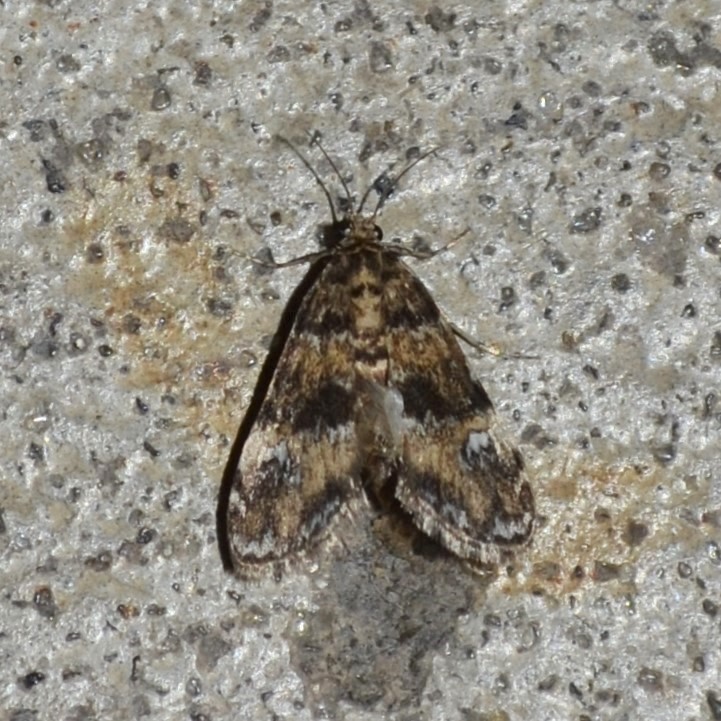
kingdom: Animalia
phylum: Arthropoda
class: Insecta
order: Lepidoptera
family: Crambidae
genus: Elophila
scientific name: Elophila obliteralis
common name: Waterlily leafcutter moth
